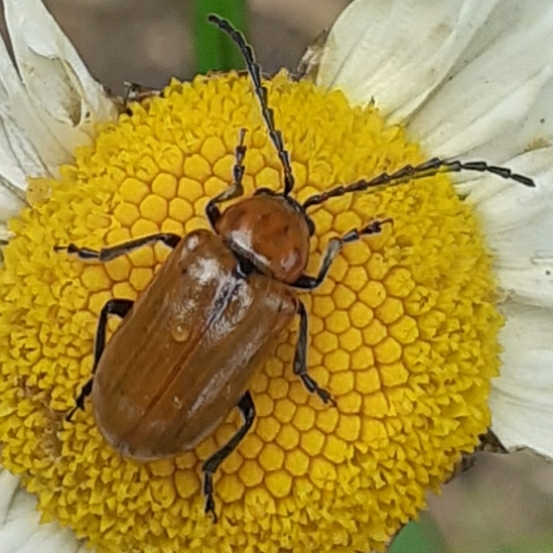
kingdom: Animalia
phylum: Arthropoda
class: Insecta
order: Coleoptera
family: Chrysomelidae
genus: Exosoma
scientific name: Exosoma lusitanicum
